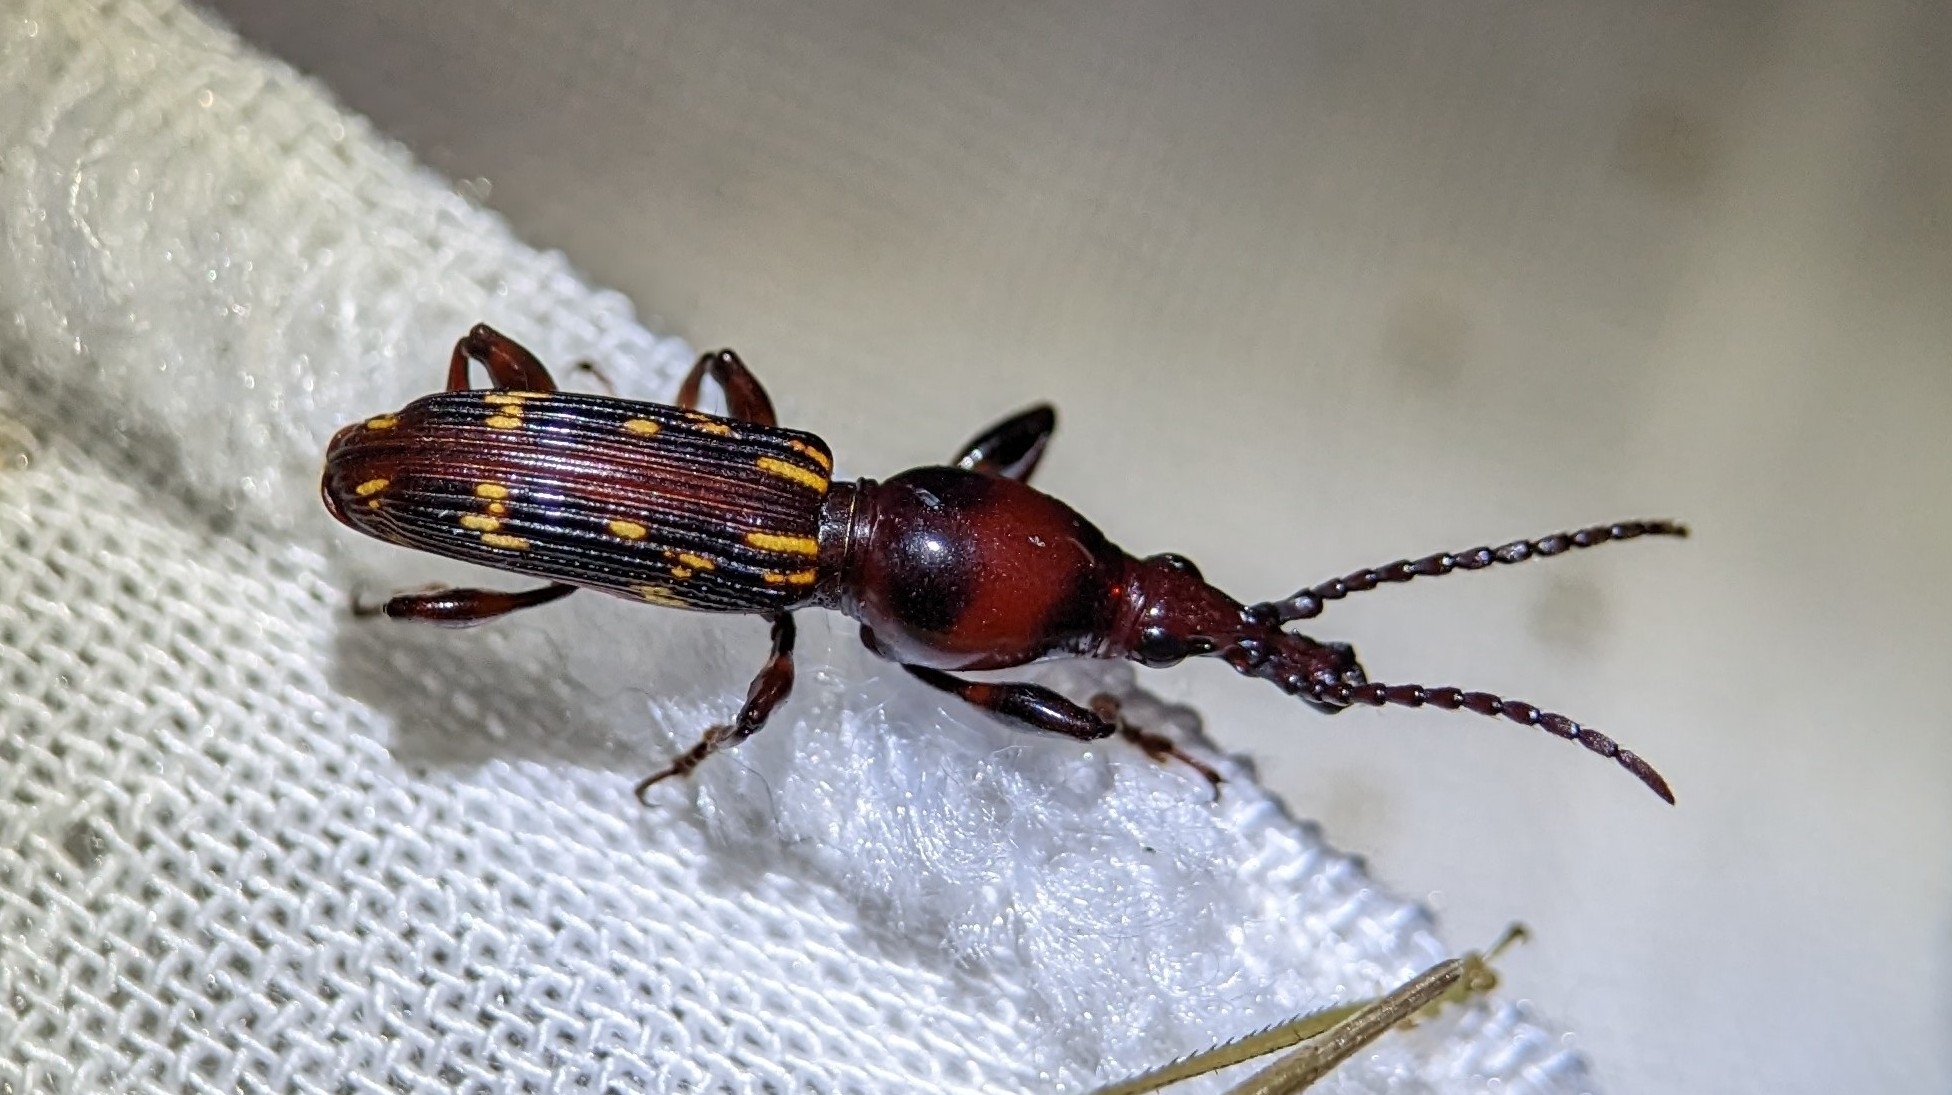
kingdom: Animalia
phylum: Arthropoda
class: Insecta
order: Coleoptera
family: Brentidae
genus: Arrenodes
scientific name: Arrenodes minutus
